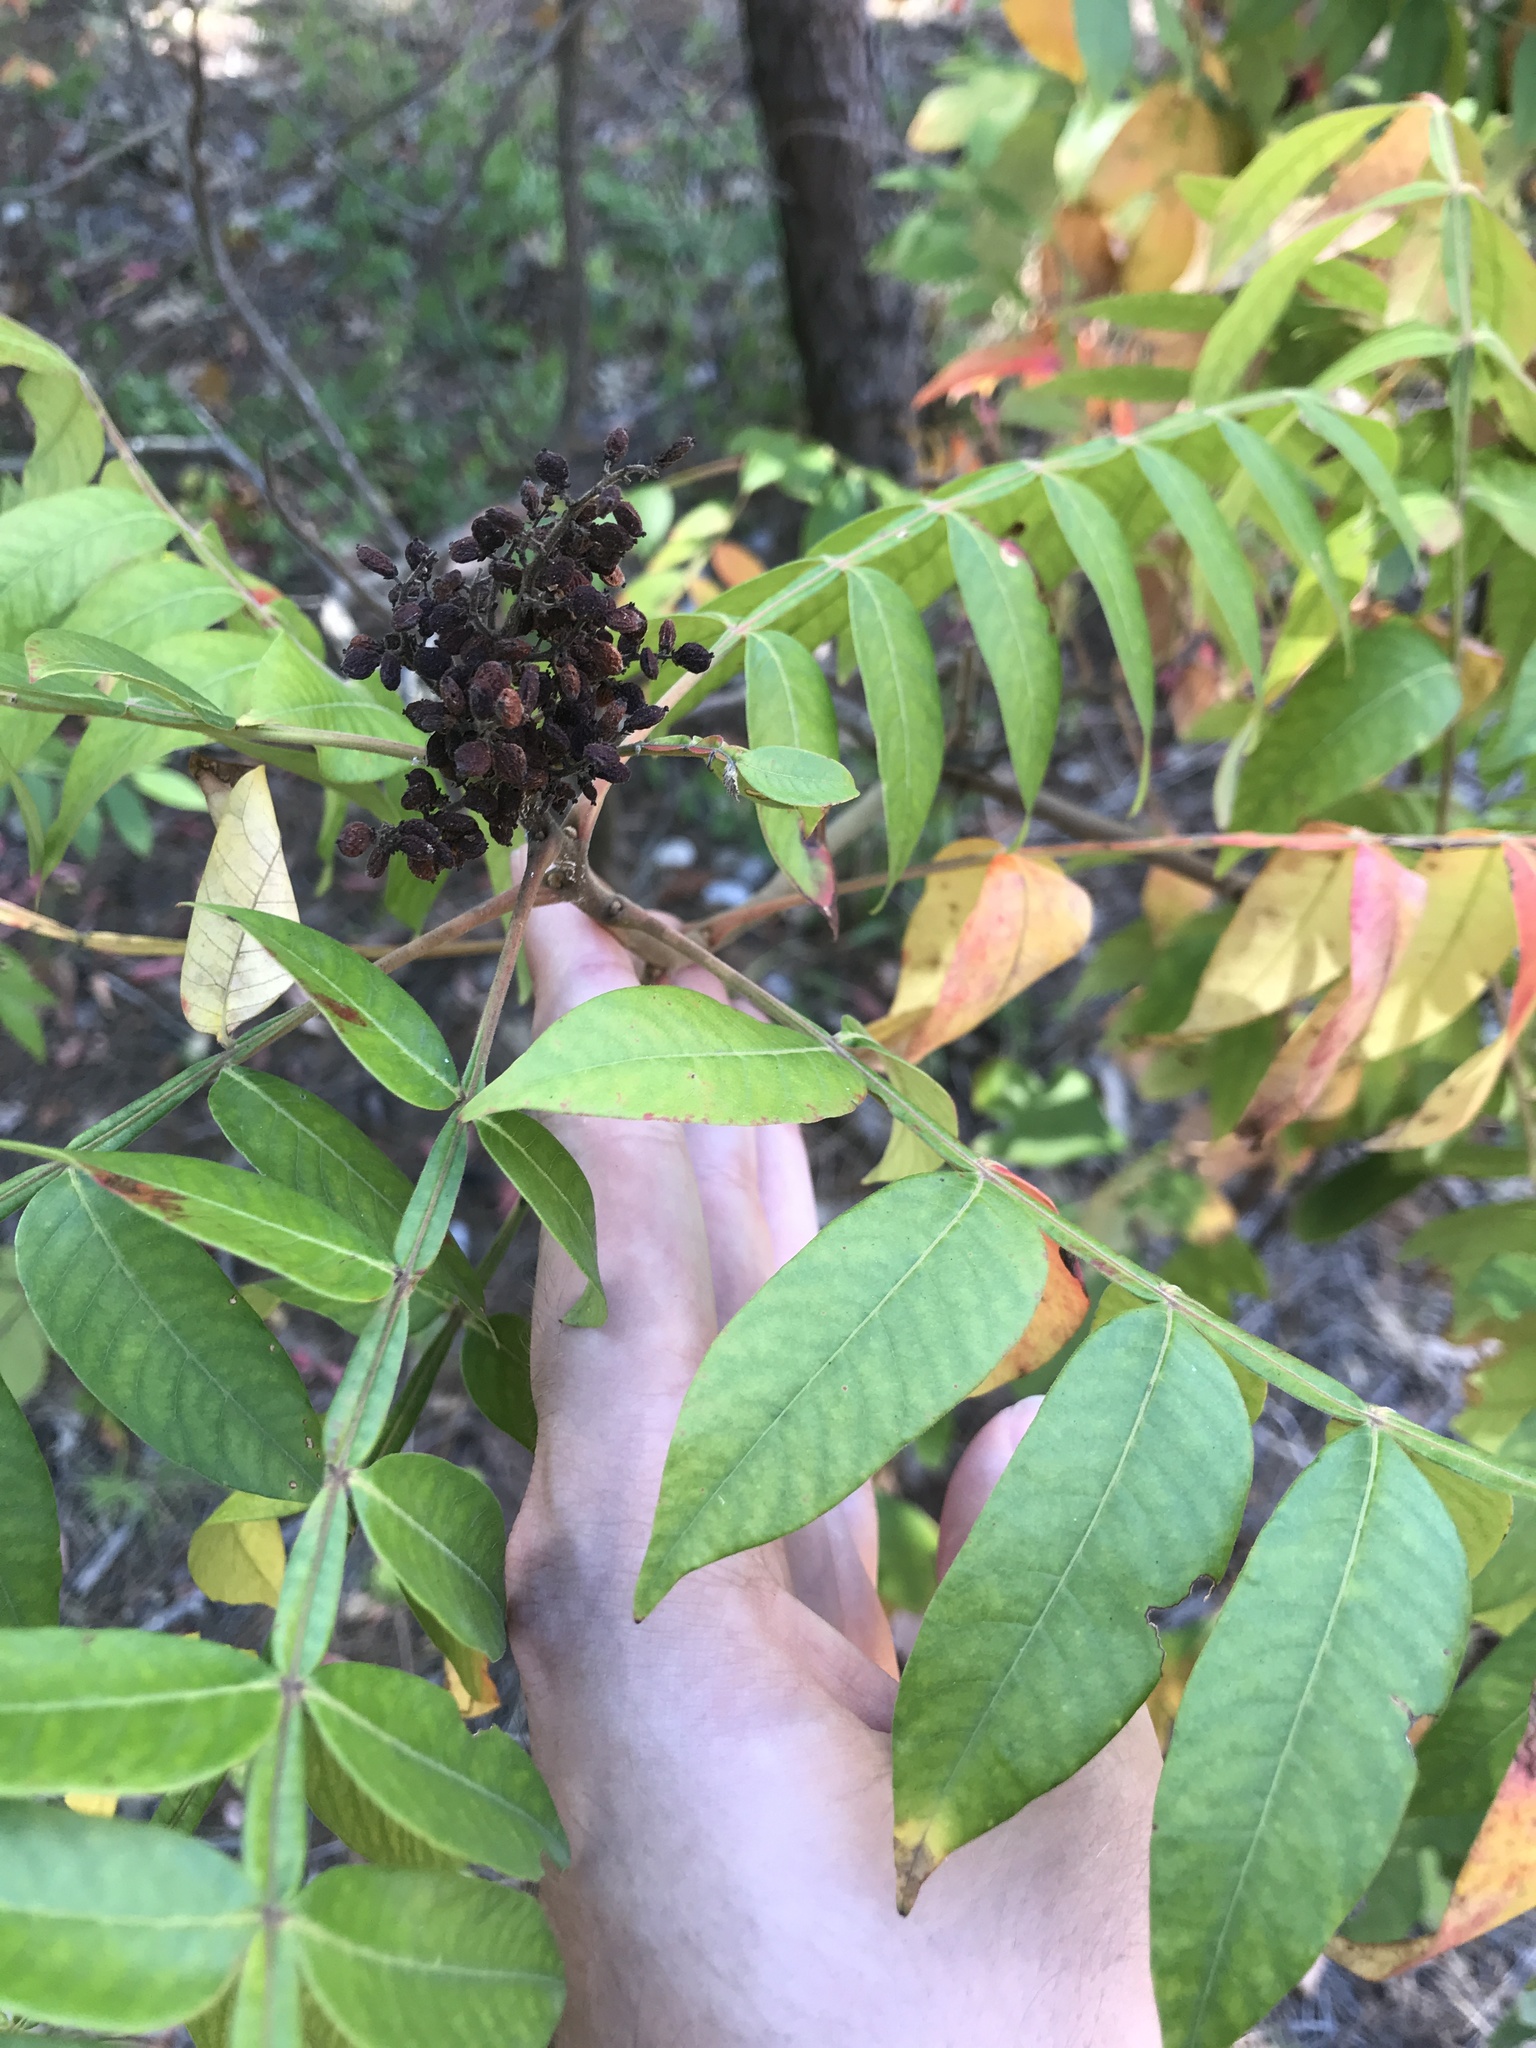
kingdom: Plantae
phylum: Tracheophyta
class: Magnoliopsida
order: Sapindales
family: Anacardiaceae
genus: Rhus
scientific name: Rhus copallina
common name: Shining sumac
